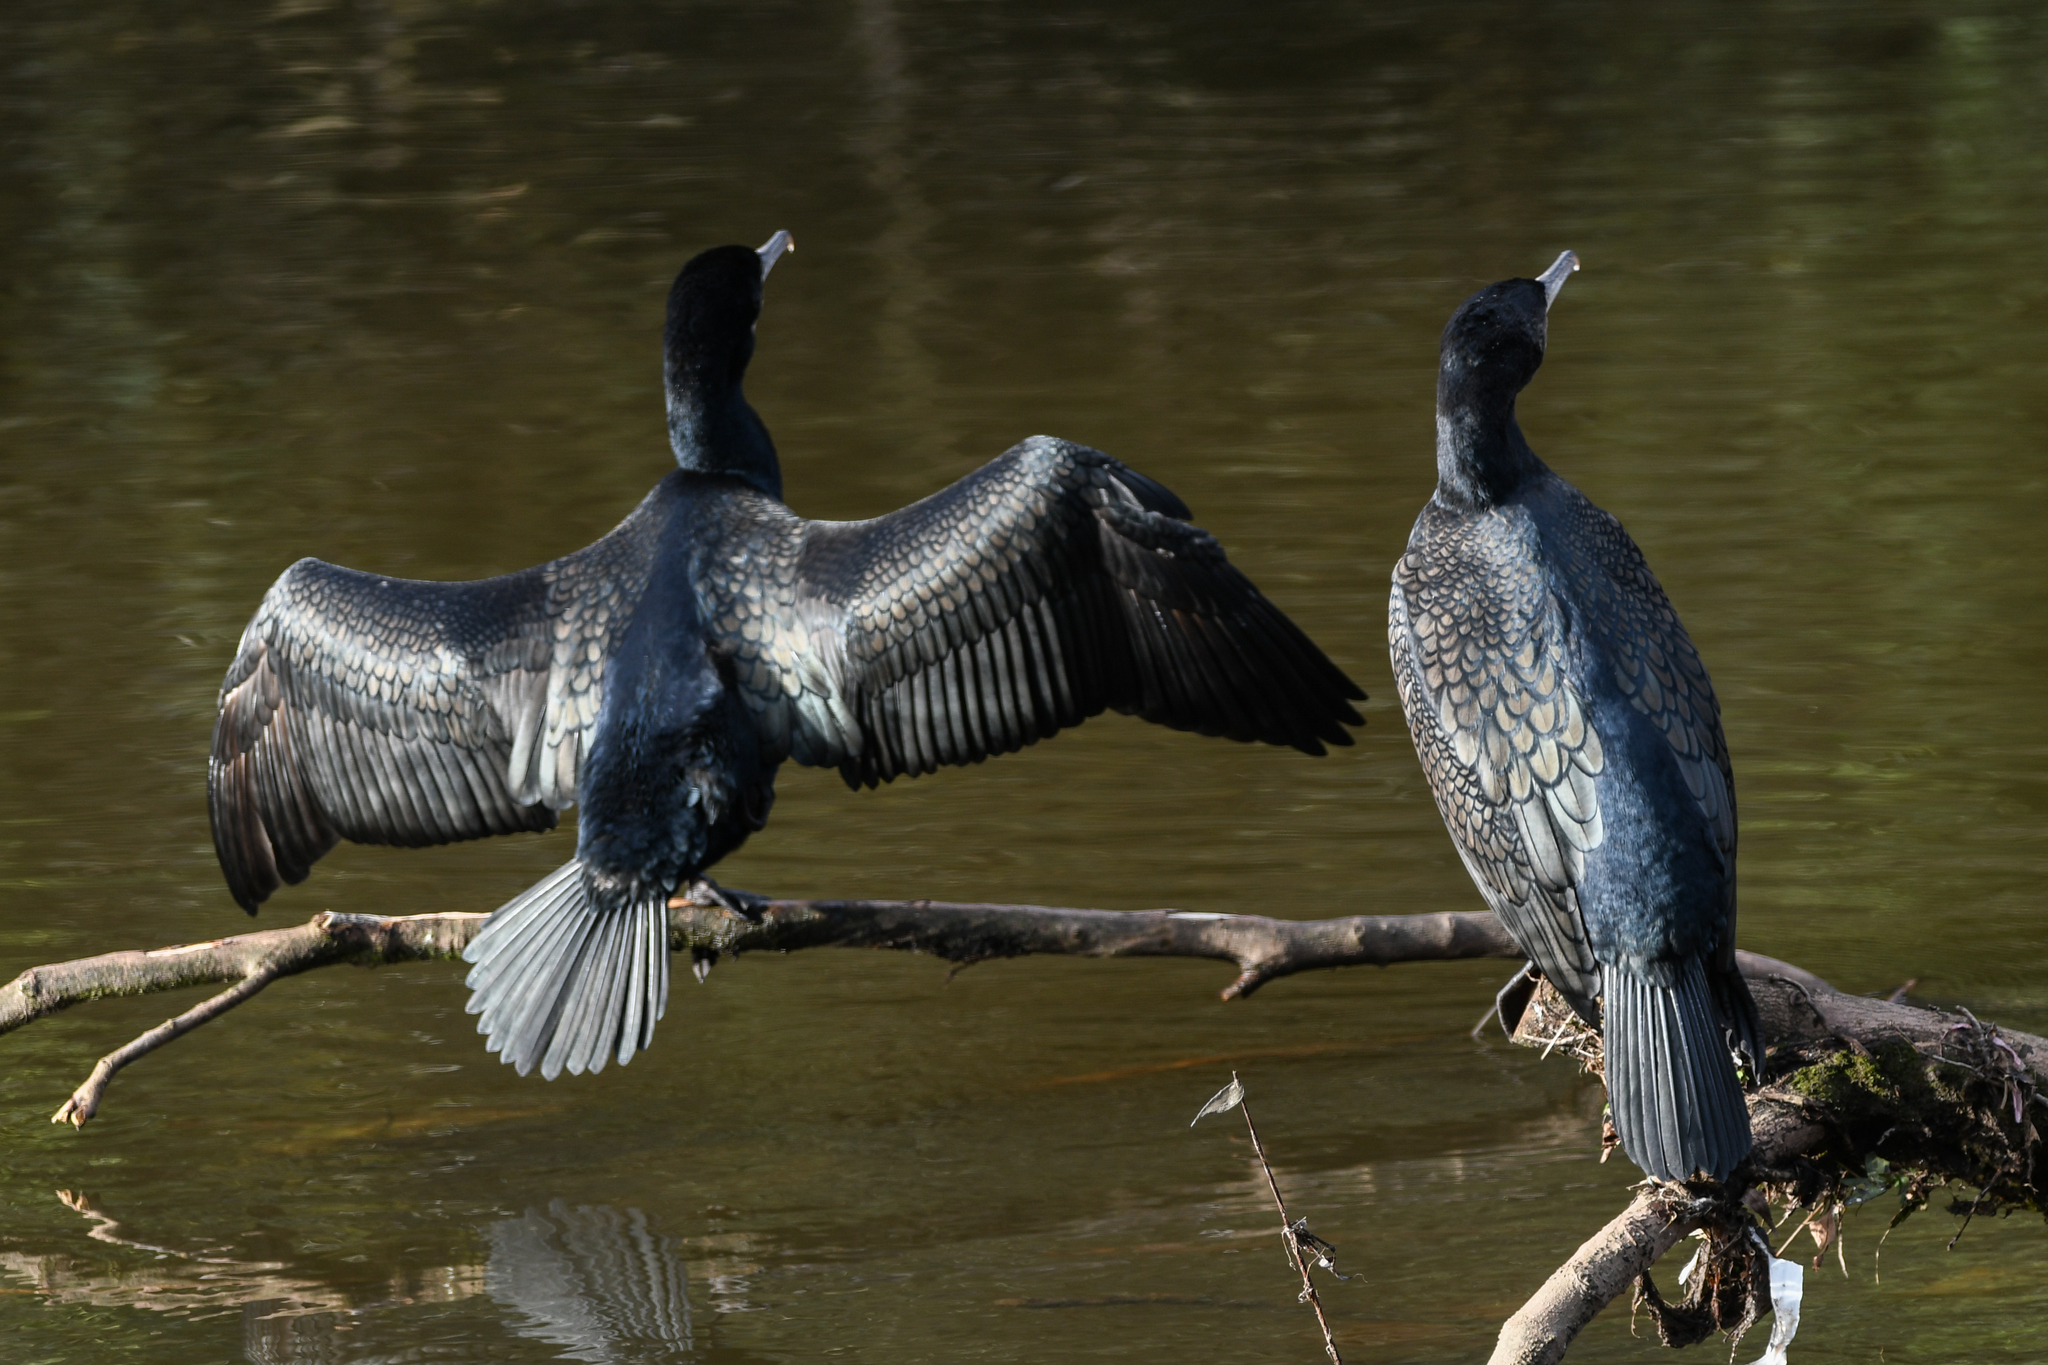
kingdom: Animalia
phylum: Chordata
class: Aves
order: Suliformes
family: Phalacrocoracidae
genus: Phalacrocorax
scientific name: Phalacrocorax carbo
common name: Great cormorant
